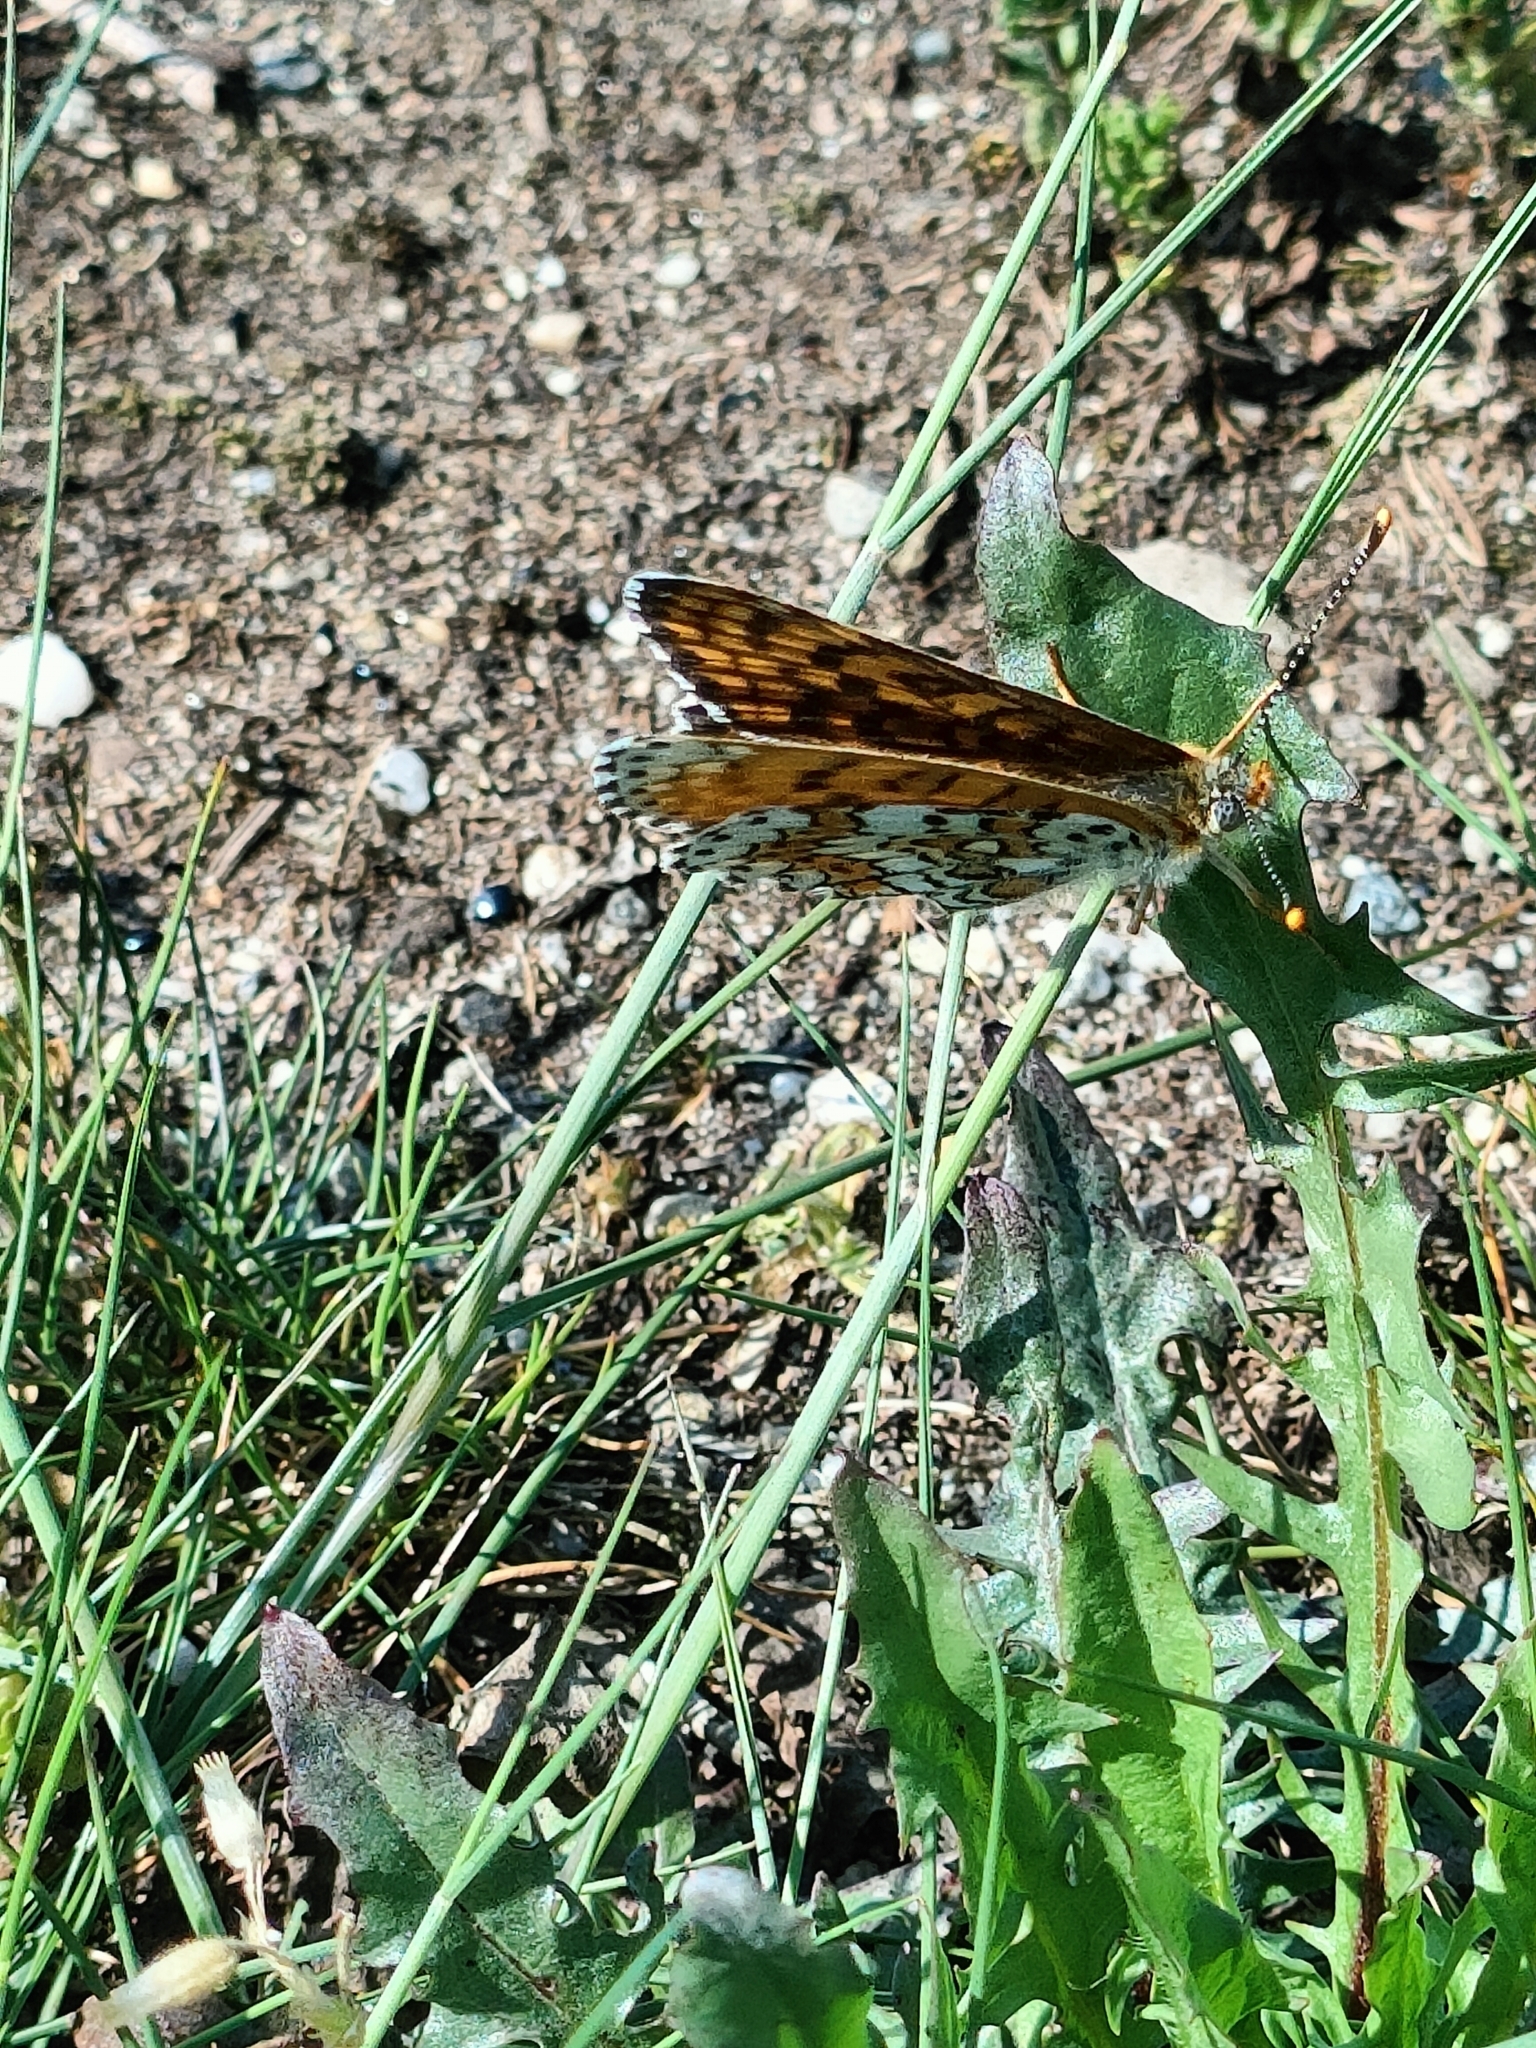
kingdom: Animalia
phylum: Arthropoda
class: Insecta
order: Lepidoptera
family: Nymphalidae
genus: Melitaea
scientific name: Melitaea cinxia
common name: Glanville fritillary
